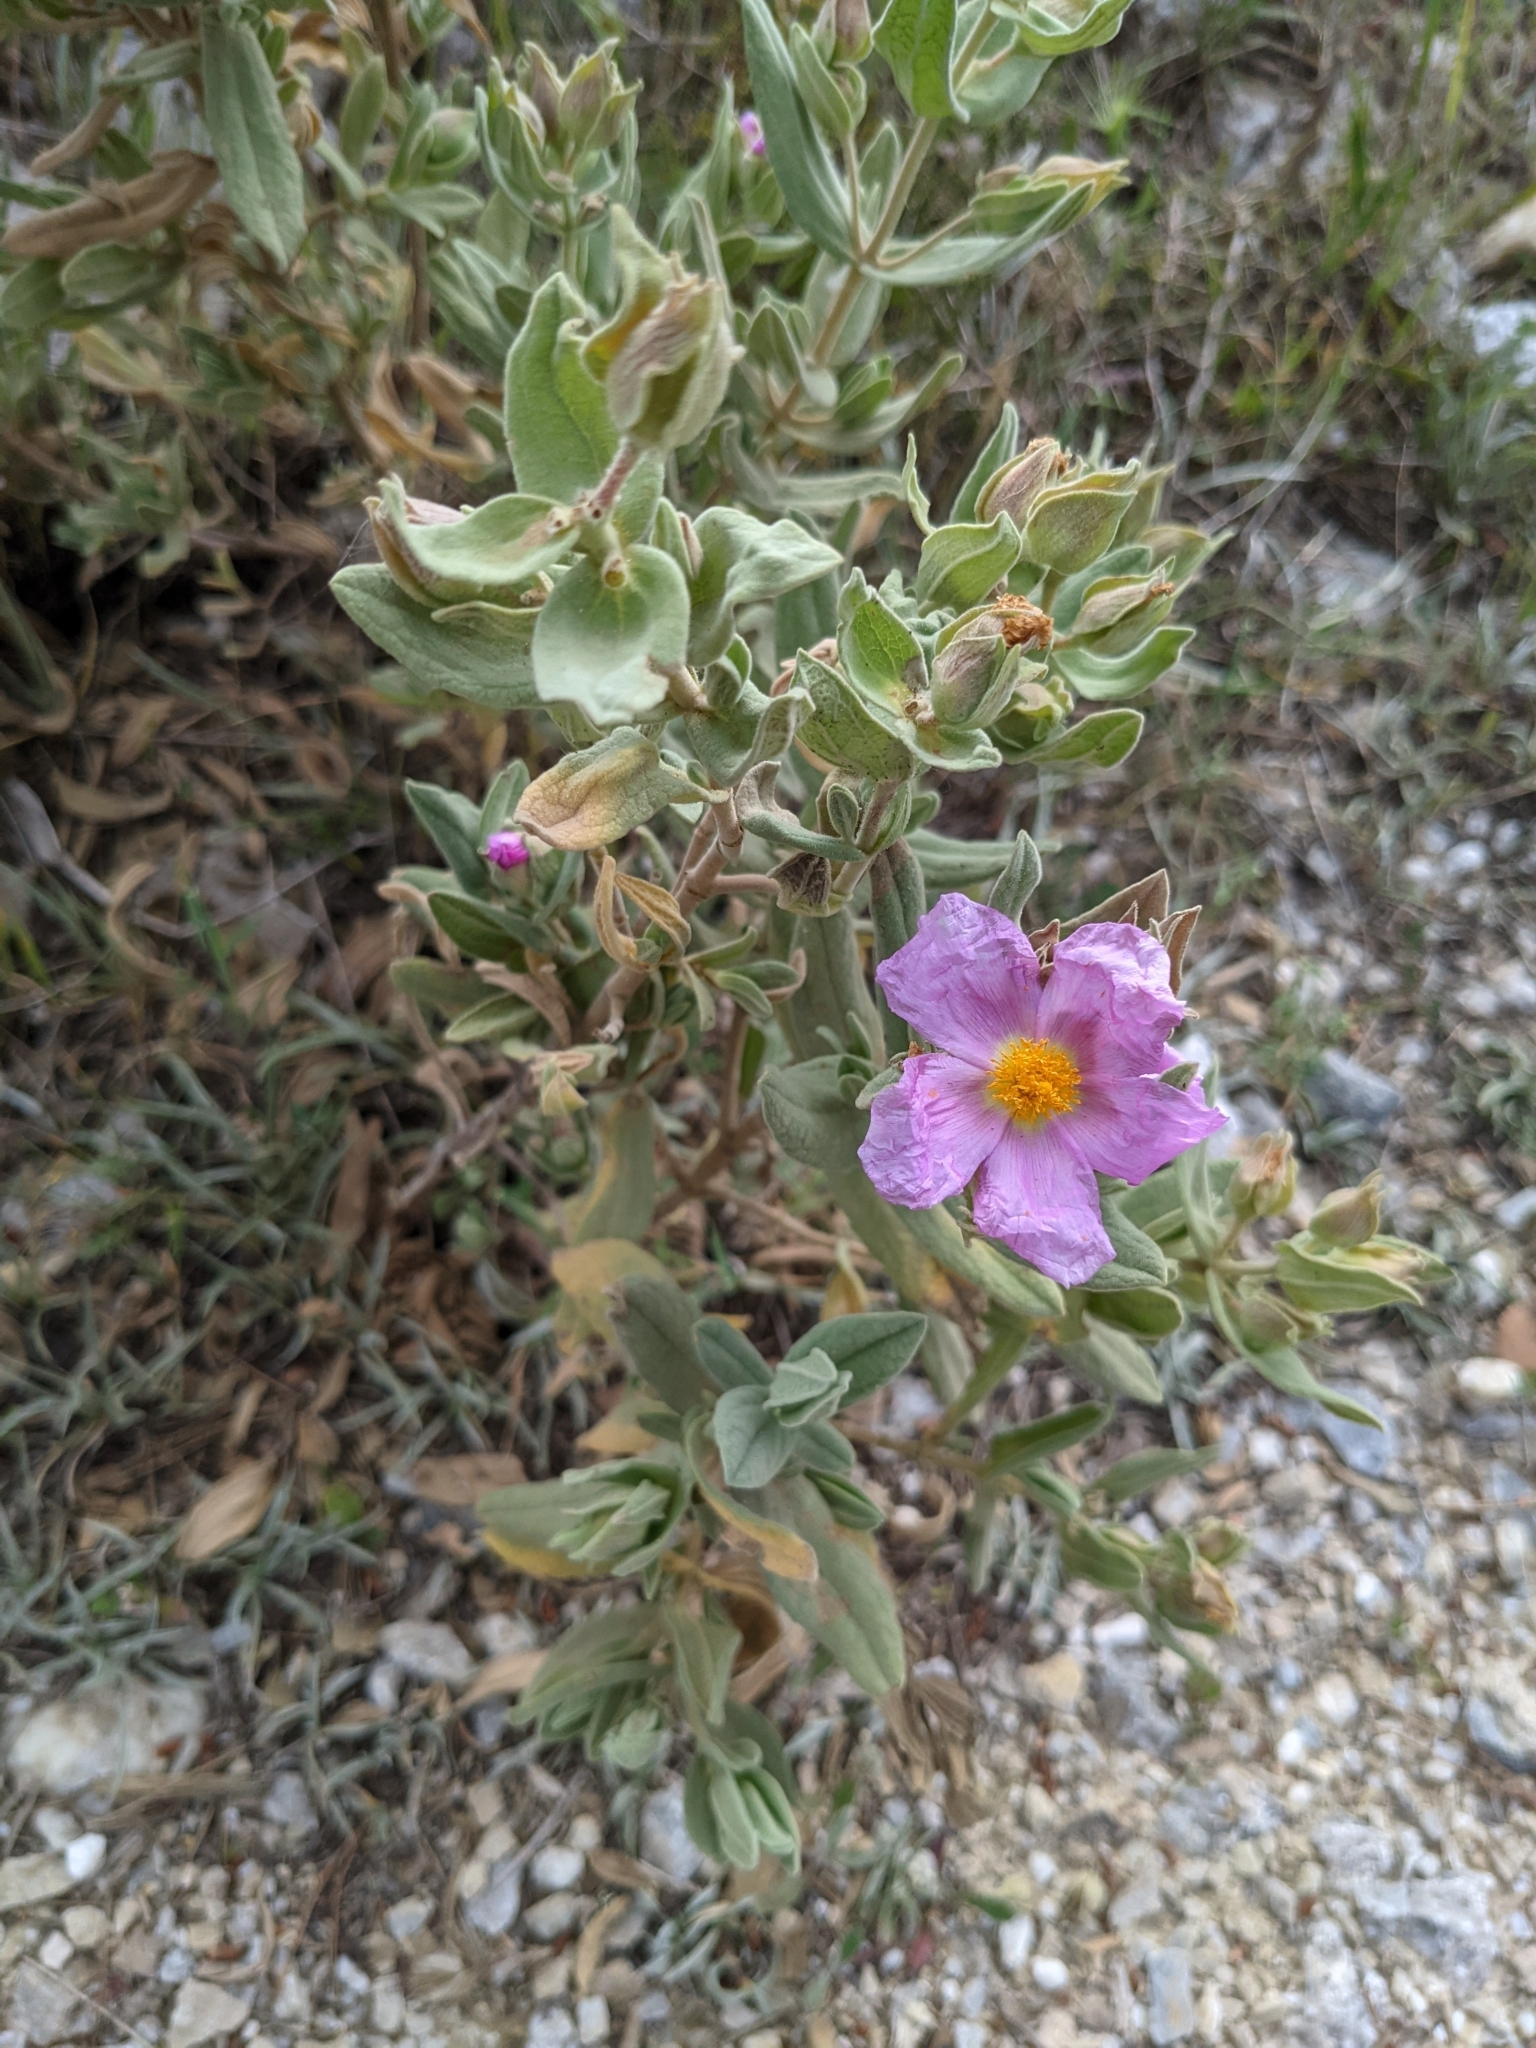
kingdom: Plantae
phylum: Tracheophyta
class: Magnoliopsida
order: Malvales
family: Cistaceae
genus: Cistus
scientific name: Cistus albidus
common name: White-leaf rock-rose
